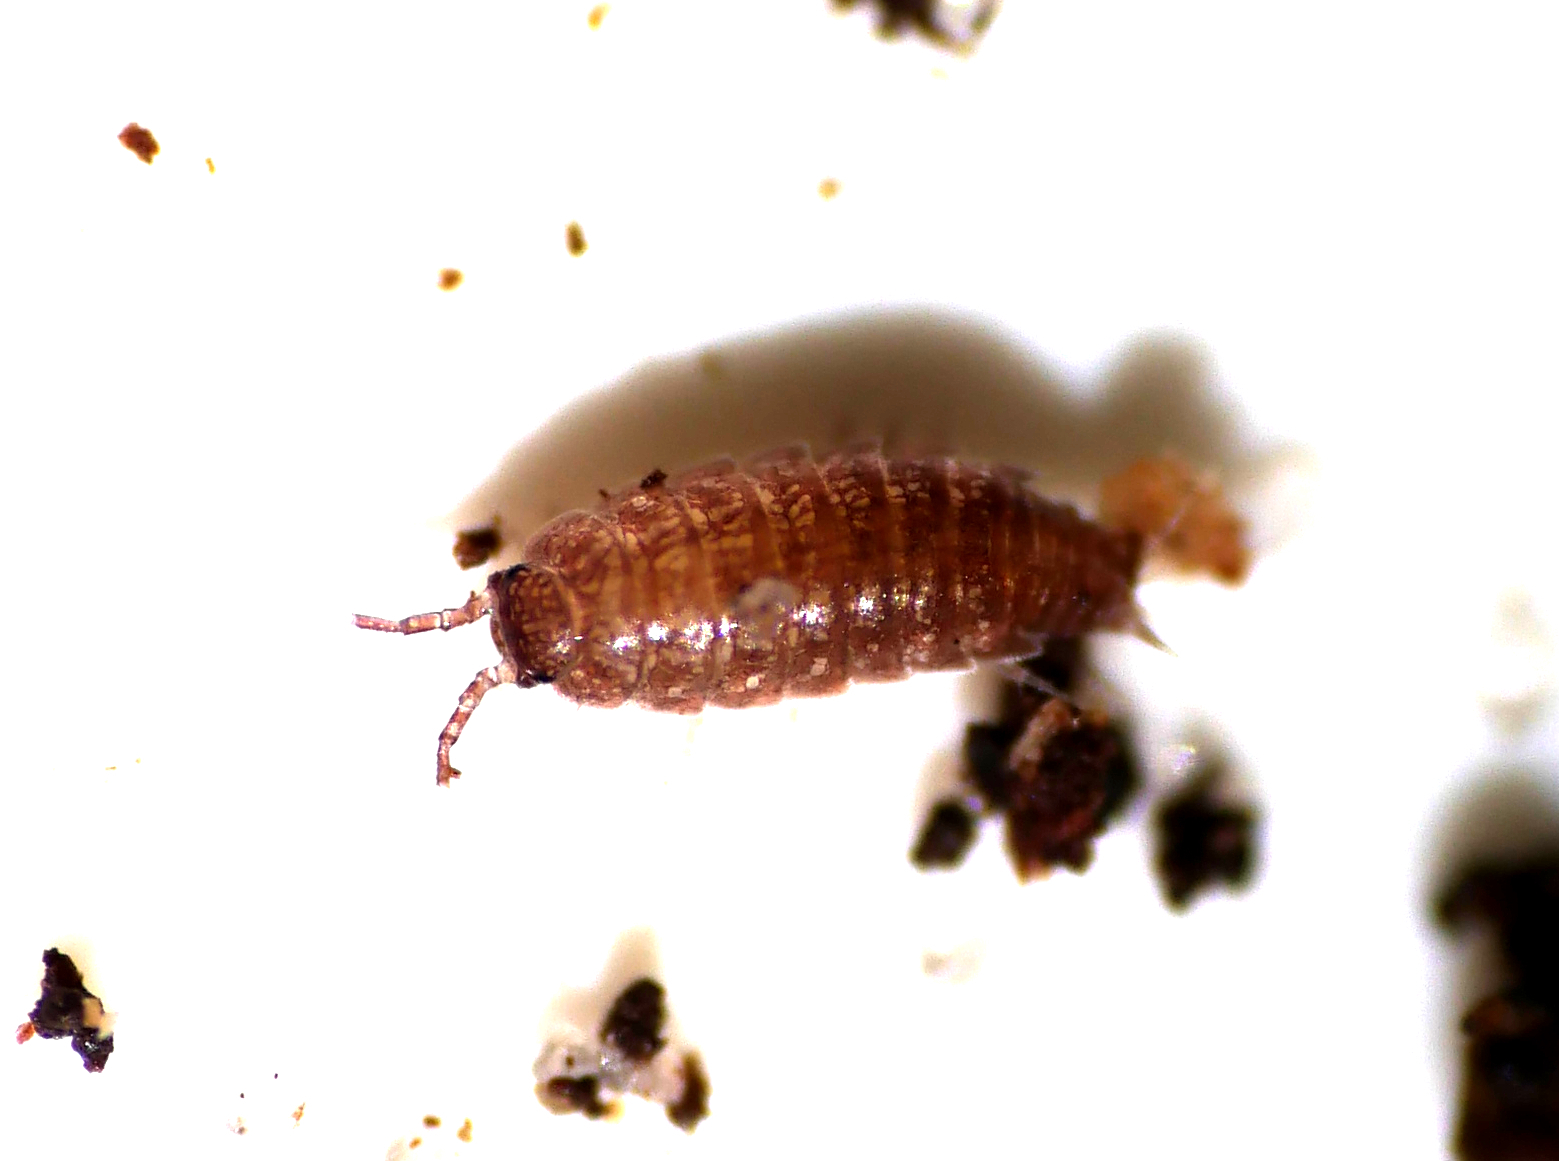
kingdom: Animalia
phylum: Arthropoda
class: Malacostraca
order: Isopoda
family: Trichoniscidae
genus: Trichoniscus
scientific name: Trichoniscus
